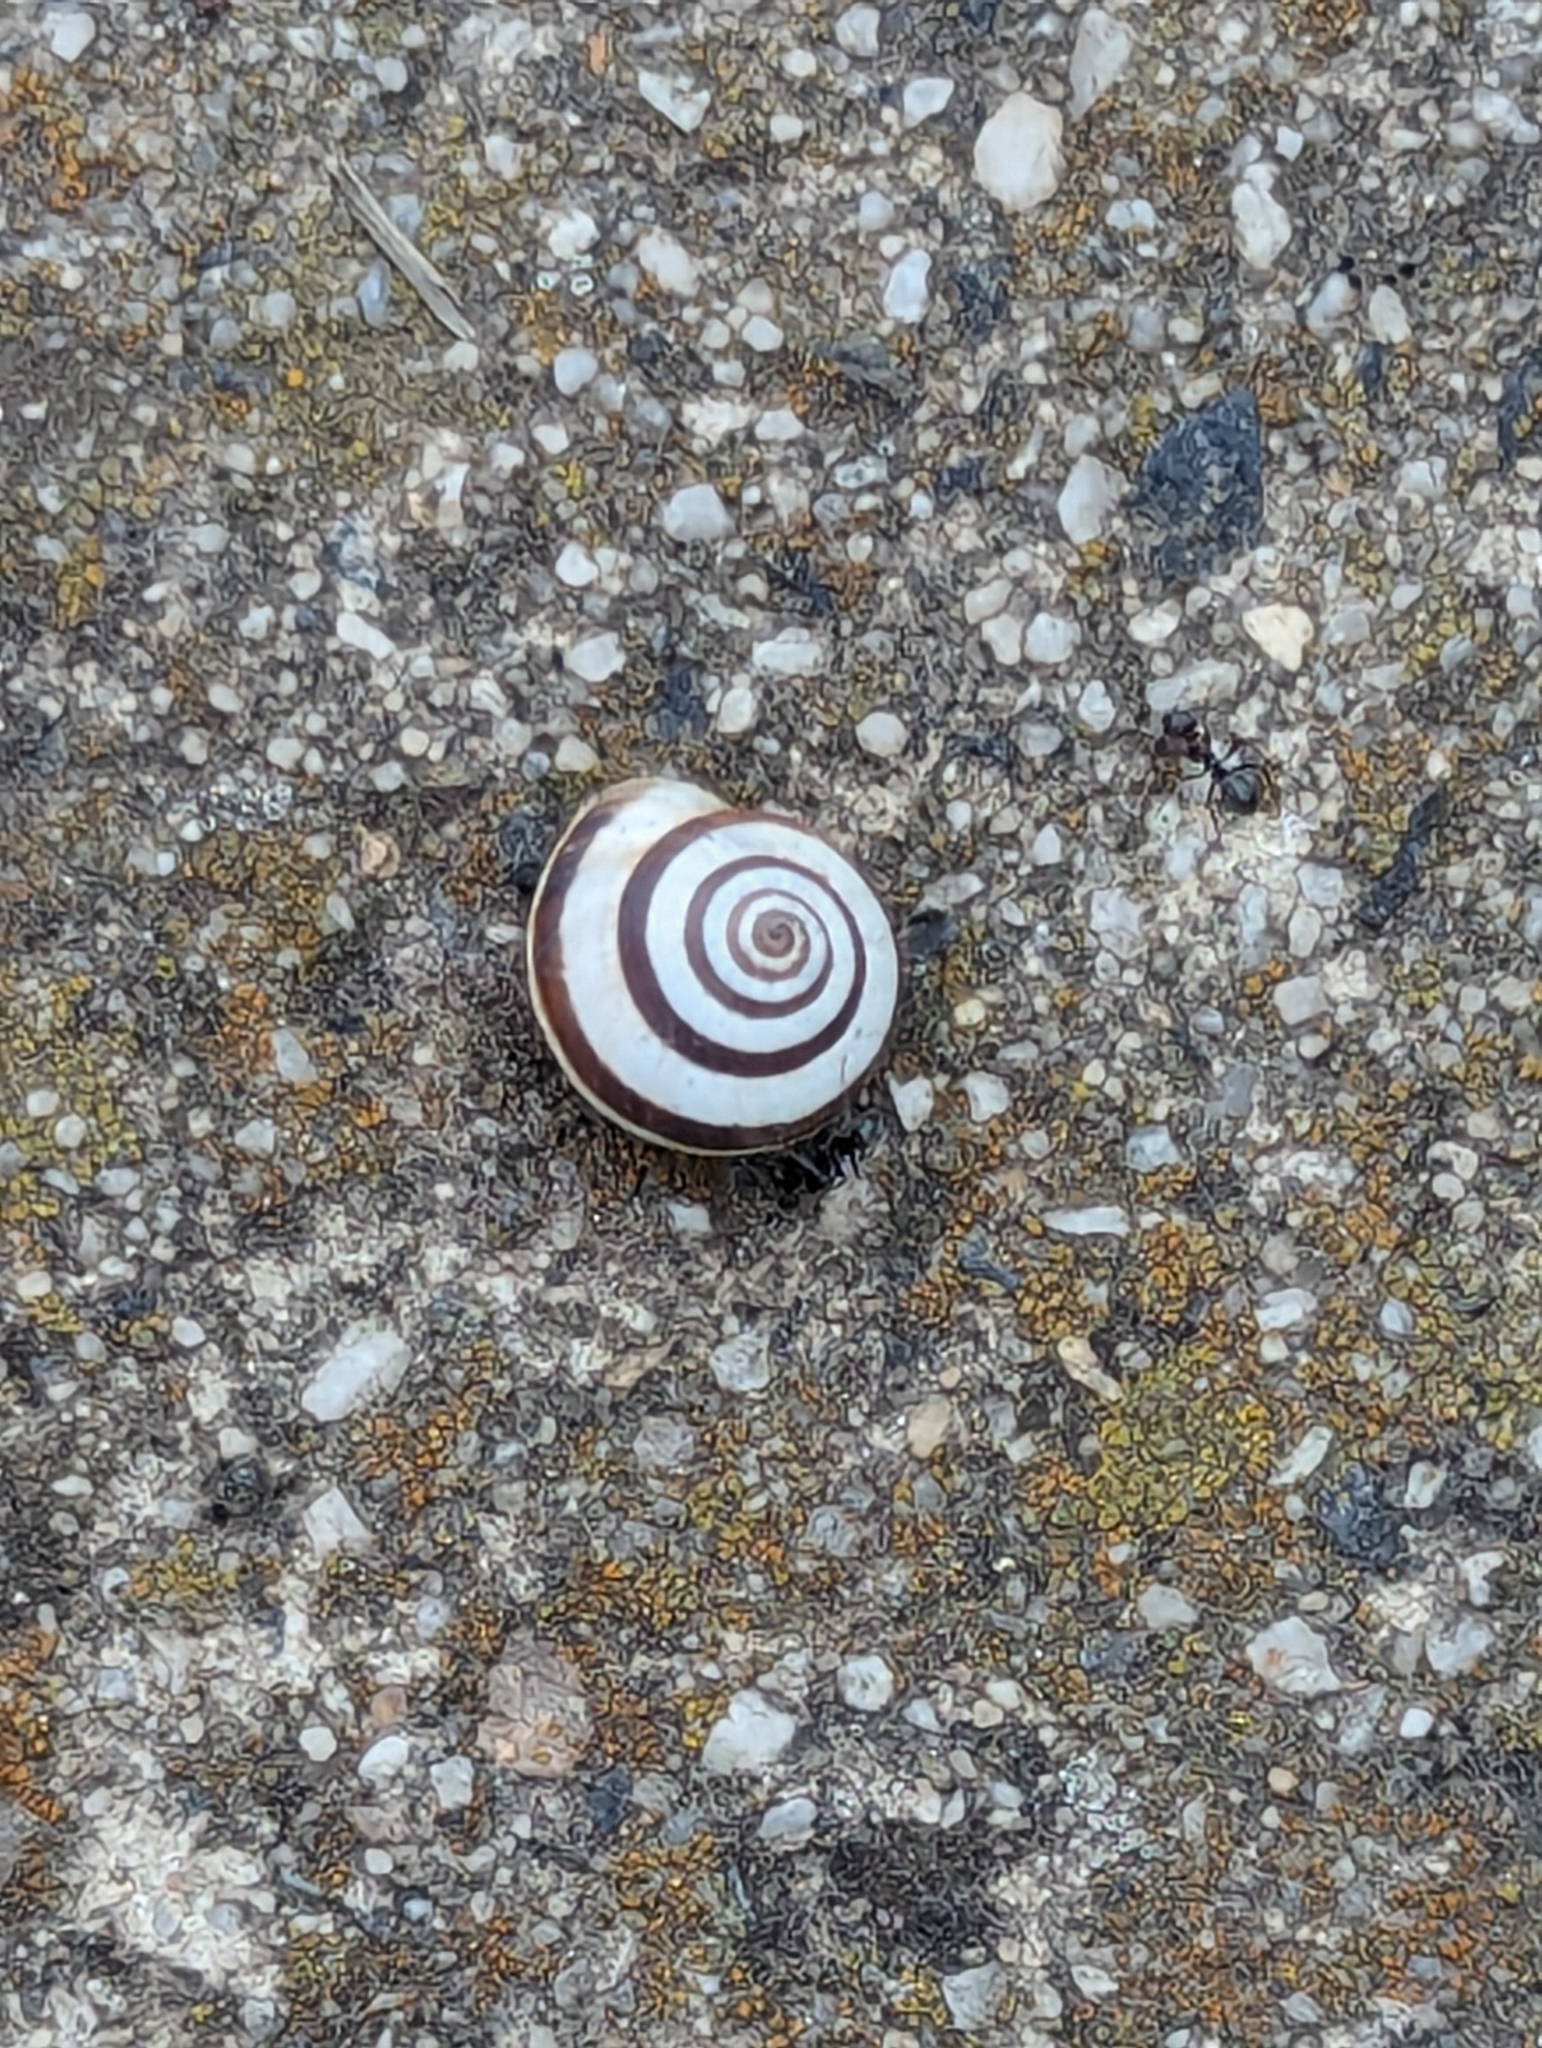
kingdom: Animalia
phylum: Mollusca
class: Gastropoda
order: Stylommatophora
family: Geomitridae
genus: Cernuella
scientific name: Cernuella virgata
